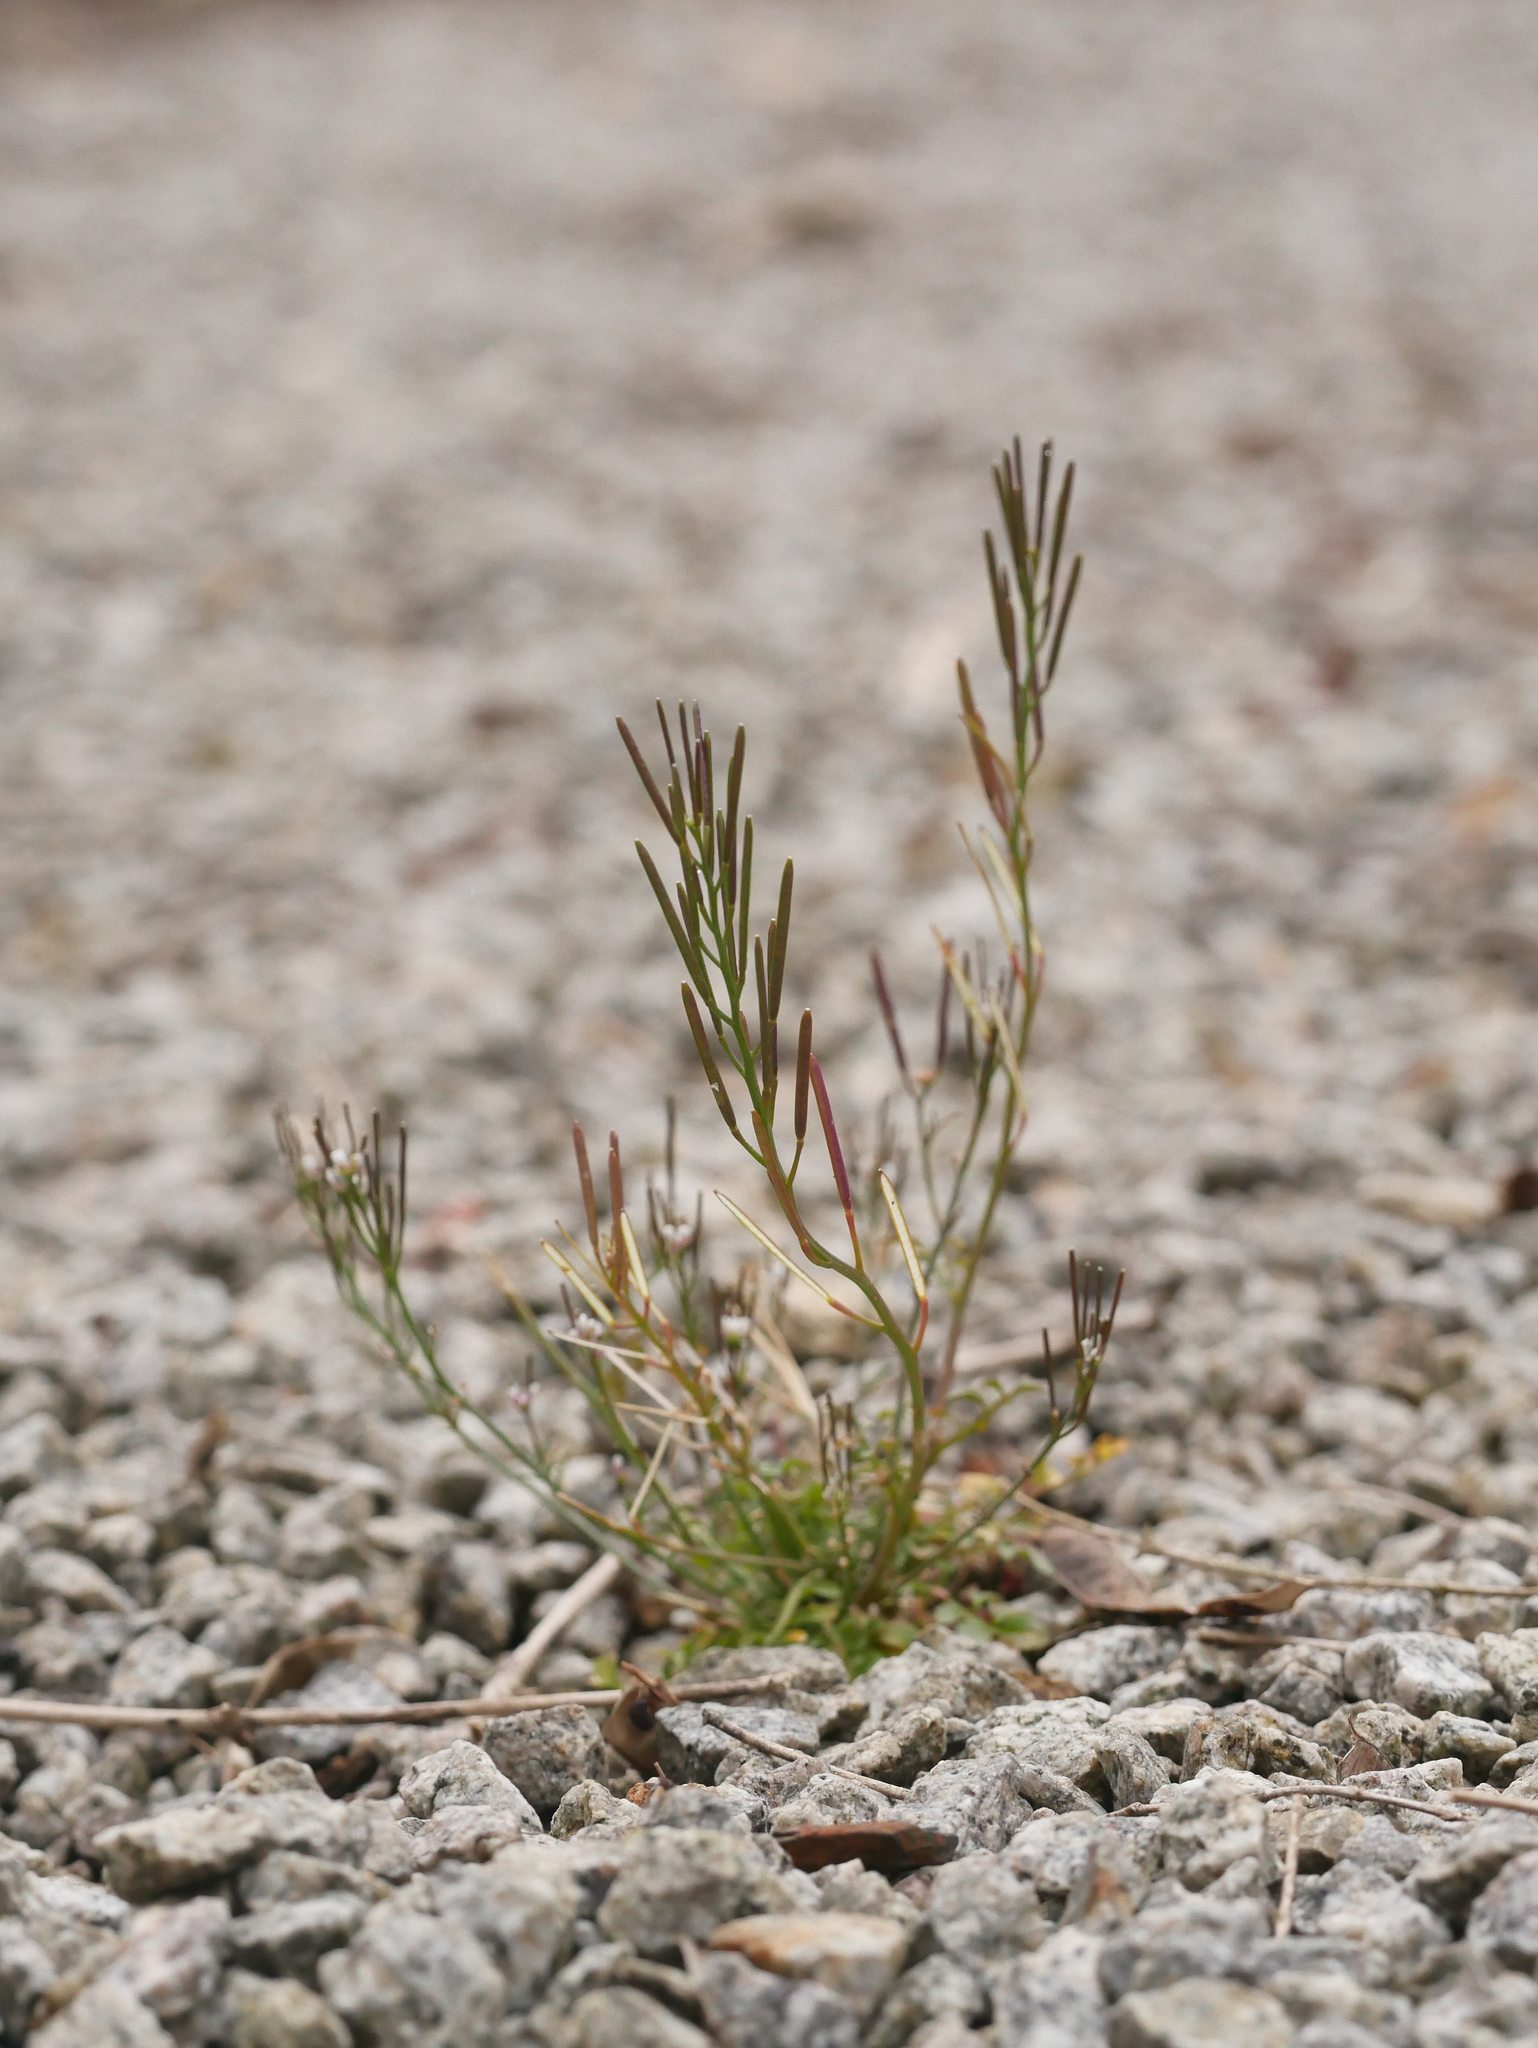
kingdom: Plantae
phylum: Tracheophyta
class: Magnoliopsida
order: Brassicales
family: Brassicaceae
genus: Cardamine
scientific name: Cardamine hirsuta
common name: Hairy bittercress
